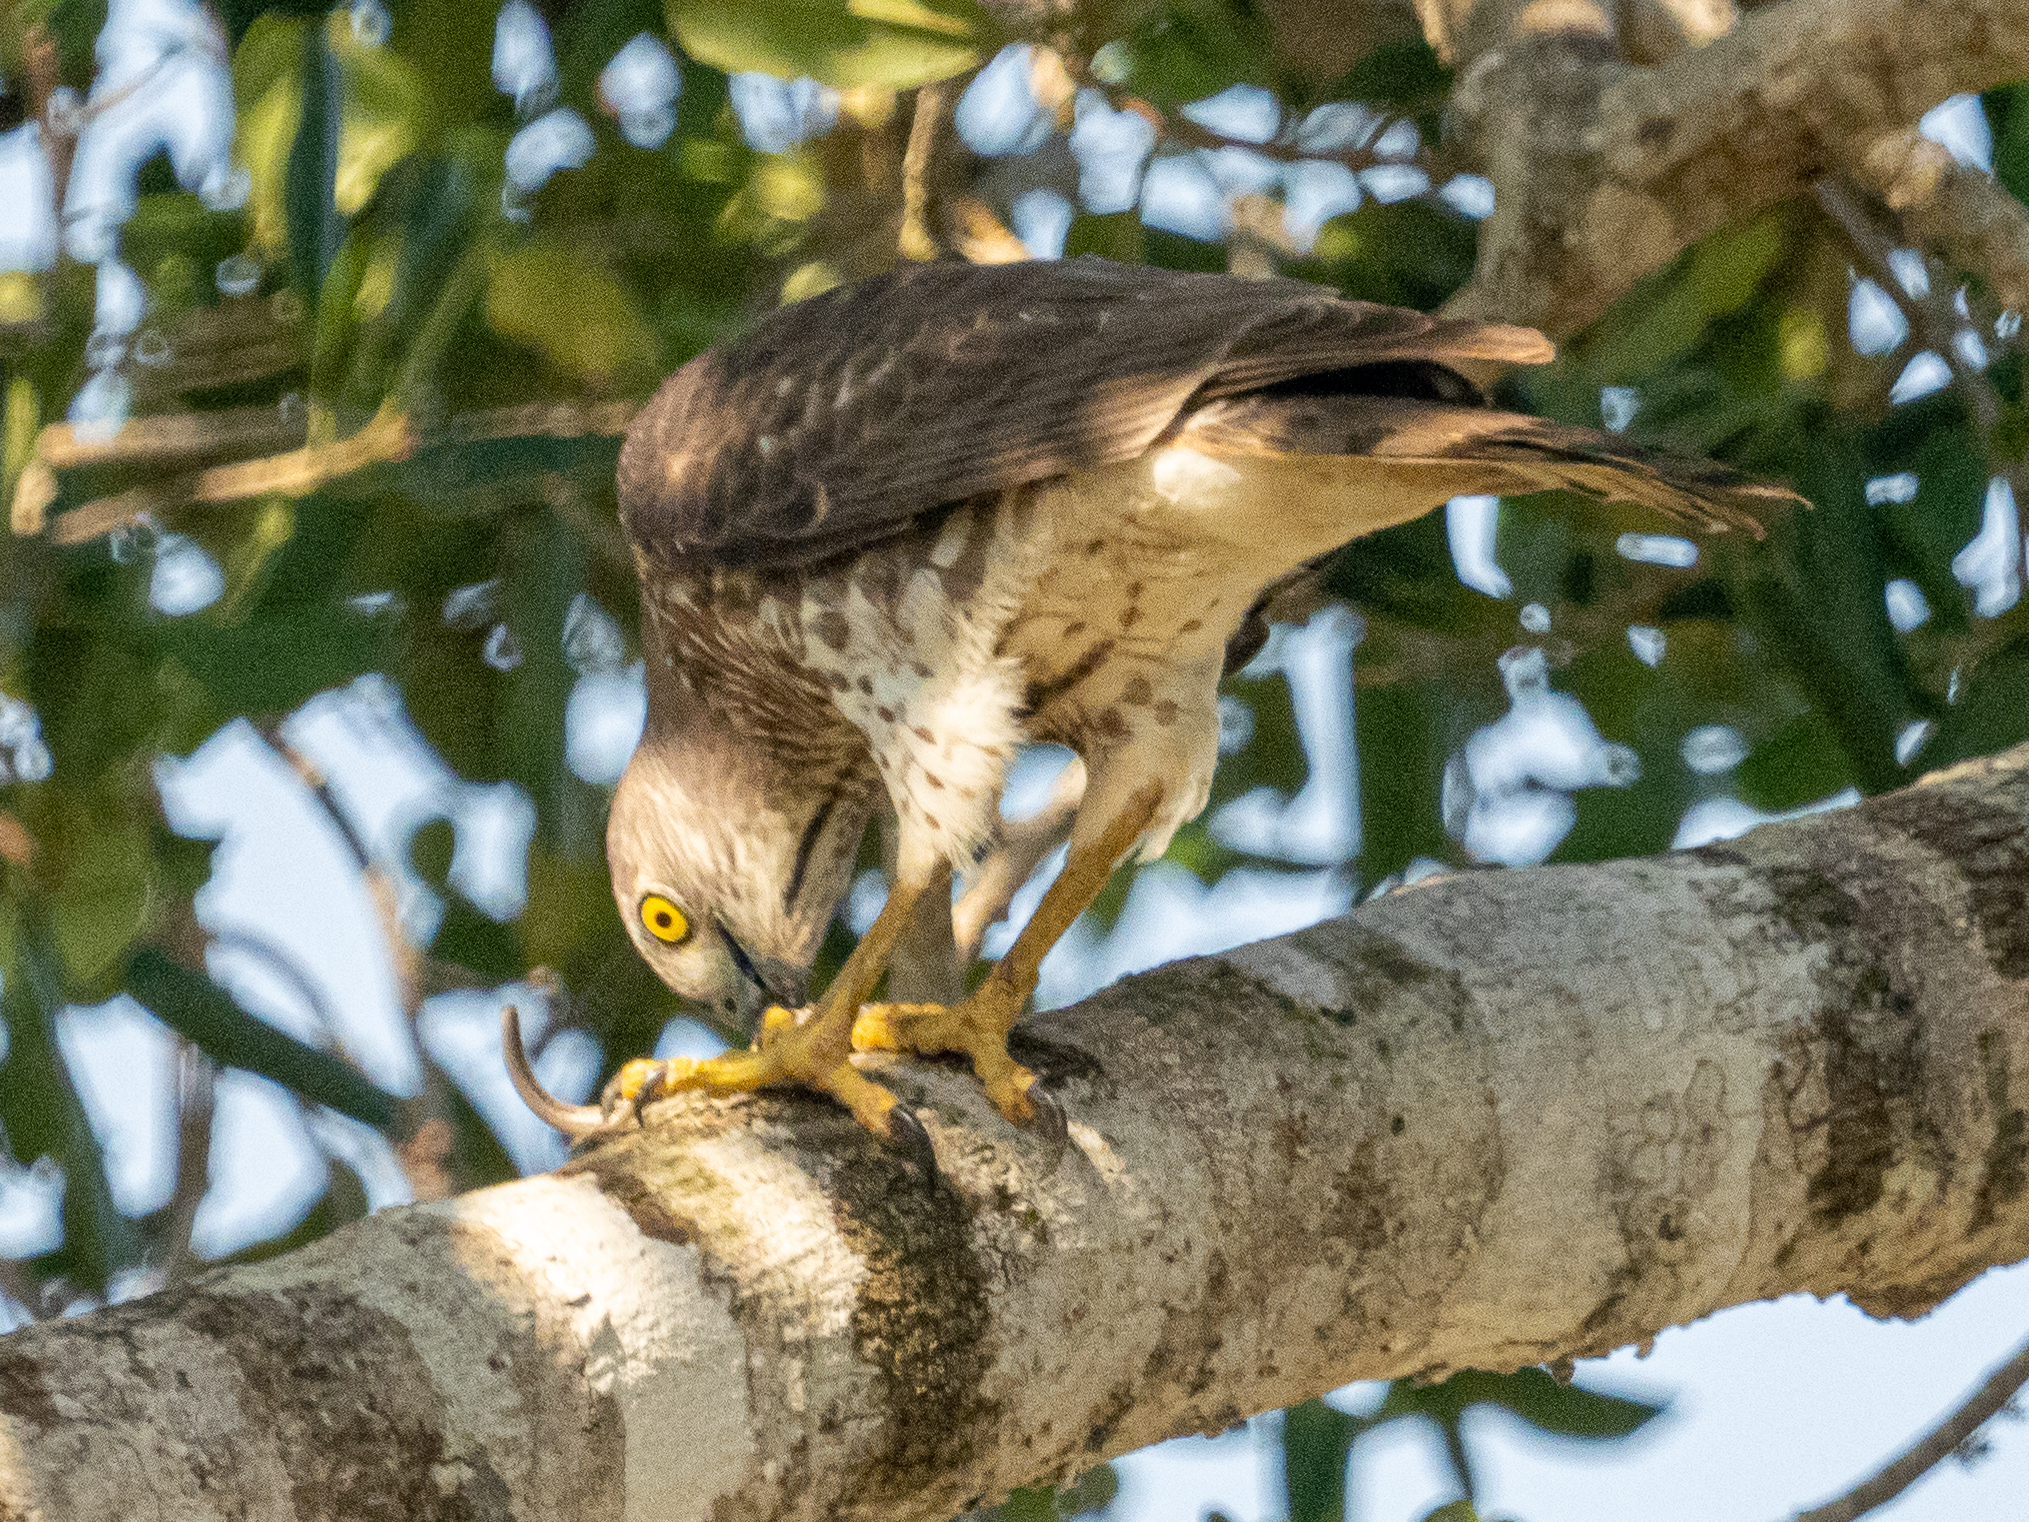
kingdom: Animalia
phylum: Chordata
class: Aves
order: Accipitriformes
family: Accipitridae
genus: Accipiter
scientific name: Accipiter badius
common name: Shikra
